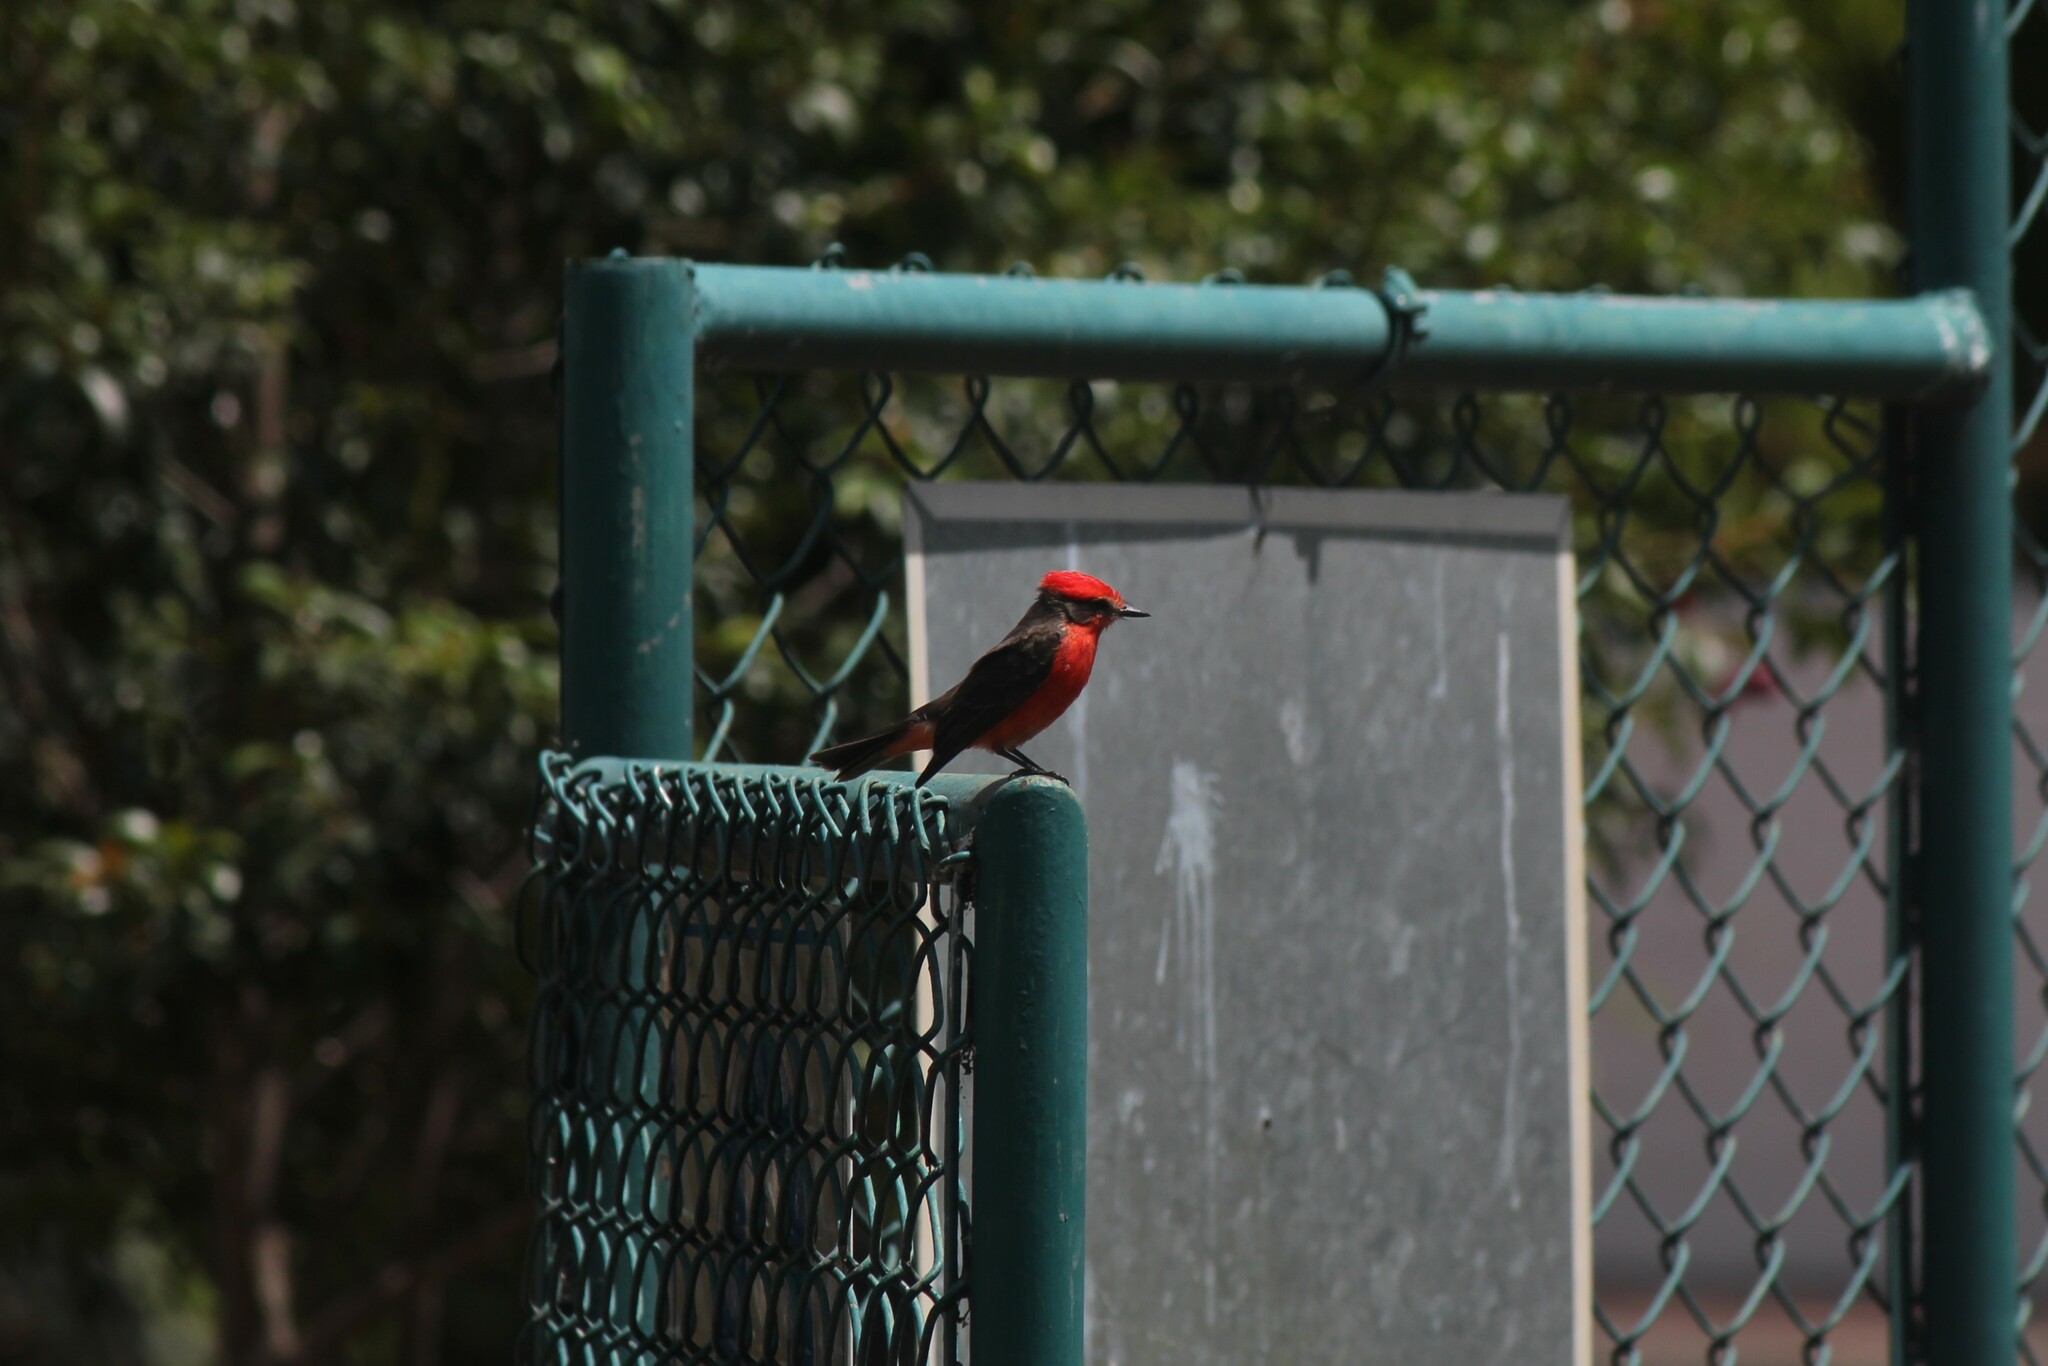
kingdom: Animalia
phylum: Chordata
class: Aves
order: Passeriformes
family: Tyrannidae
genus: Pyrocephalus
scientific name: Pyrocephalus rubinus
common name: Vermilion flycatcher
